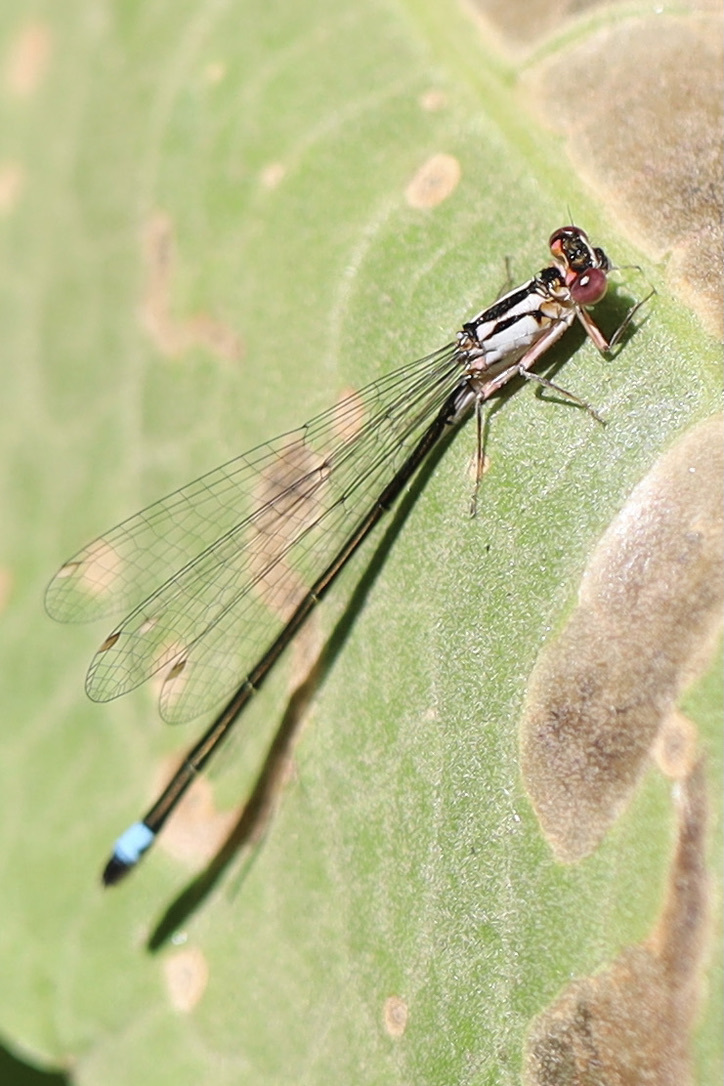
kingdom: Animalia
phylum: Arthropoda
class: Insecta
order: Odonata
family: Coenagrionidae
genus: Ischnura
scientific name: Ischnura cervula
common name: Pacific forktail
